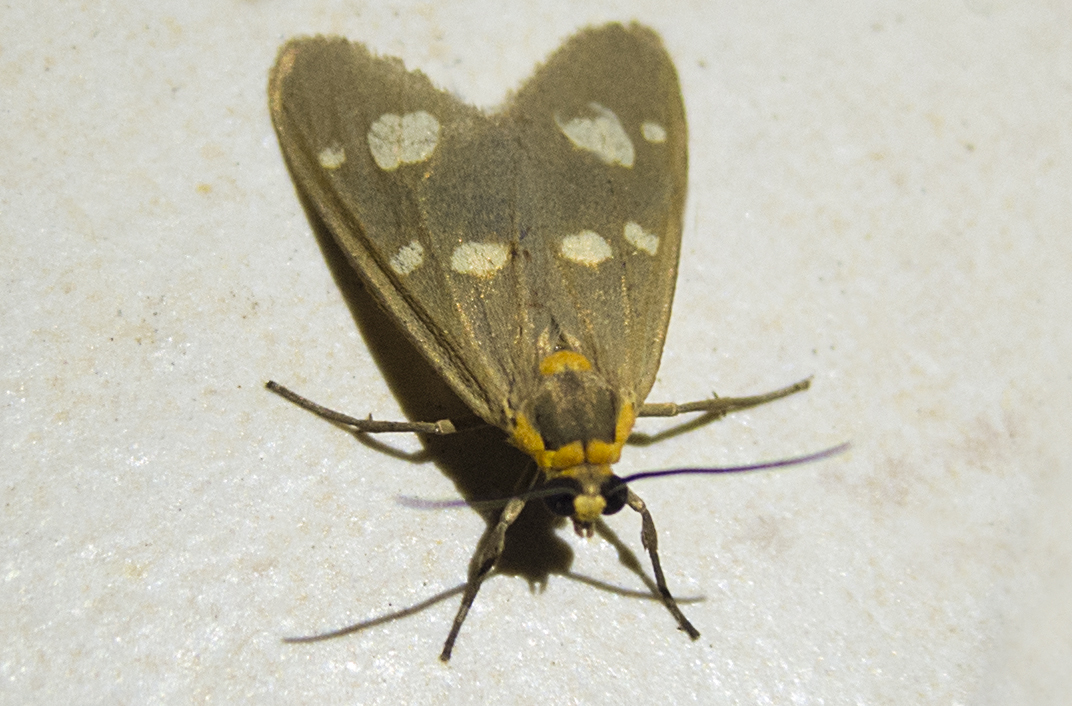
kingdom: Animalia
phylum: Arthropoda
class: Insecta
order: Lepidoptera
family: Erebidae
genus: Dysauxes
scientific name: Dysauxes punctata
